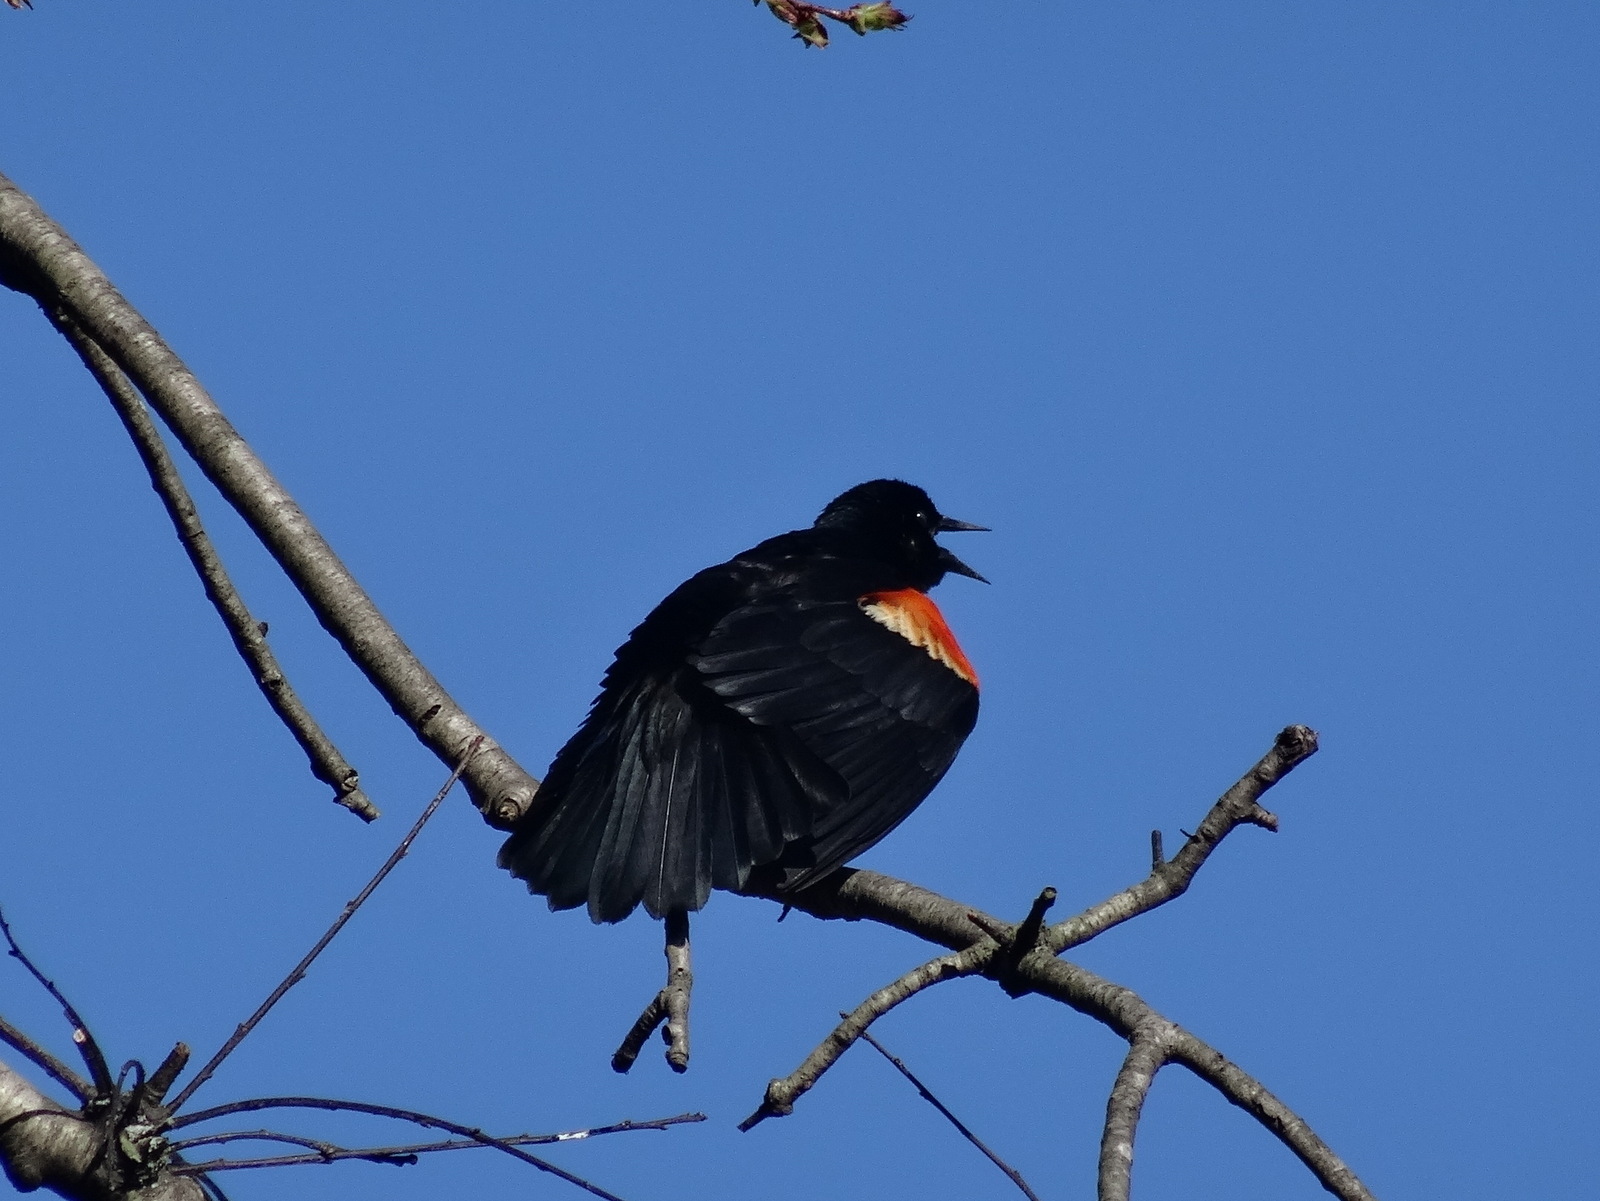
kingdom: Animalia
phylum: Chordata
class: Aves
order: Passeriformes
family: Icteridae
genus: Agelaius
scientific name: Agelaius phoeniceus
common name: Red-winged blackbird
